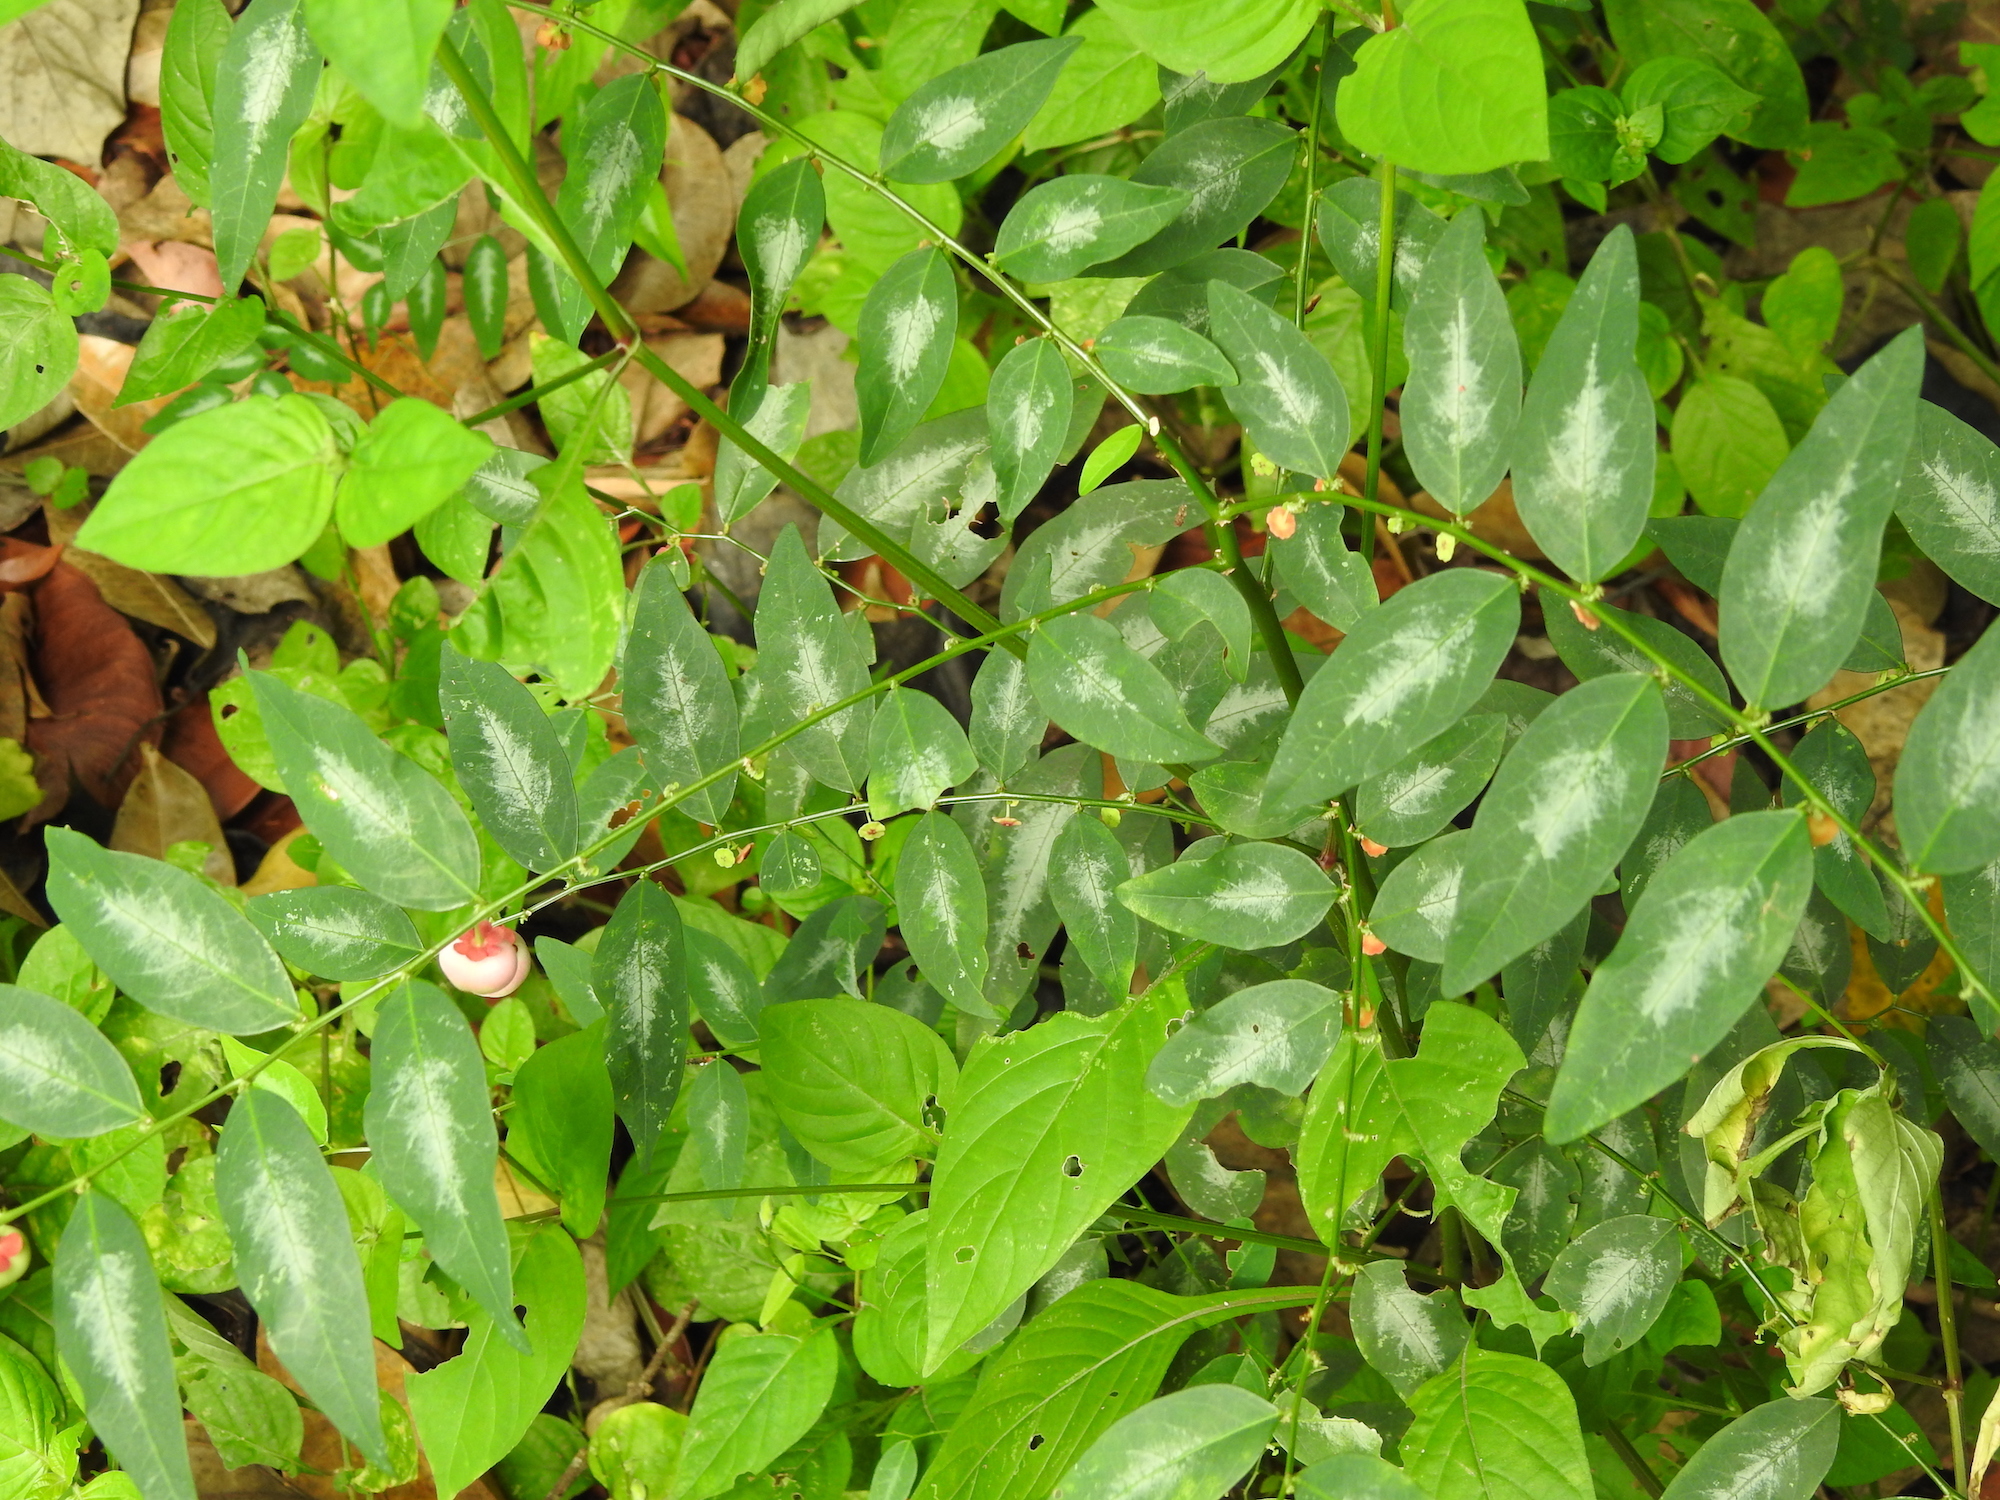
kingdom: Plantae
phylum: Tracheophyta
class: Magnoliopsida
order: Malpighiales
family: Phyllanthaceae
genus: Breynia
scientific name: Breynia androgyna
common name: Star gooseberry
